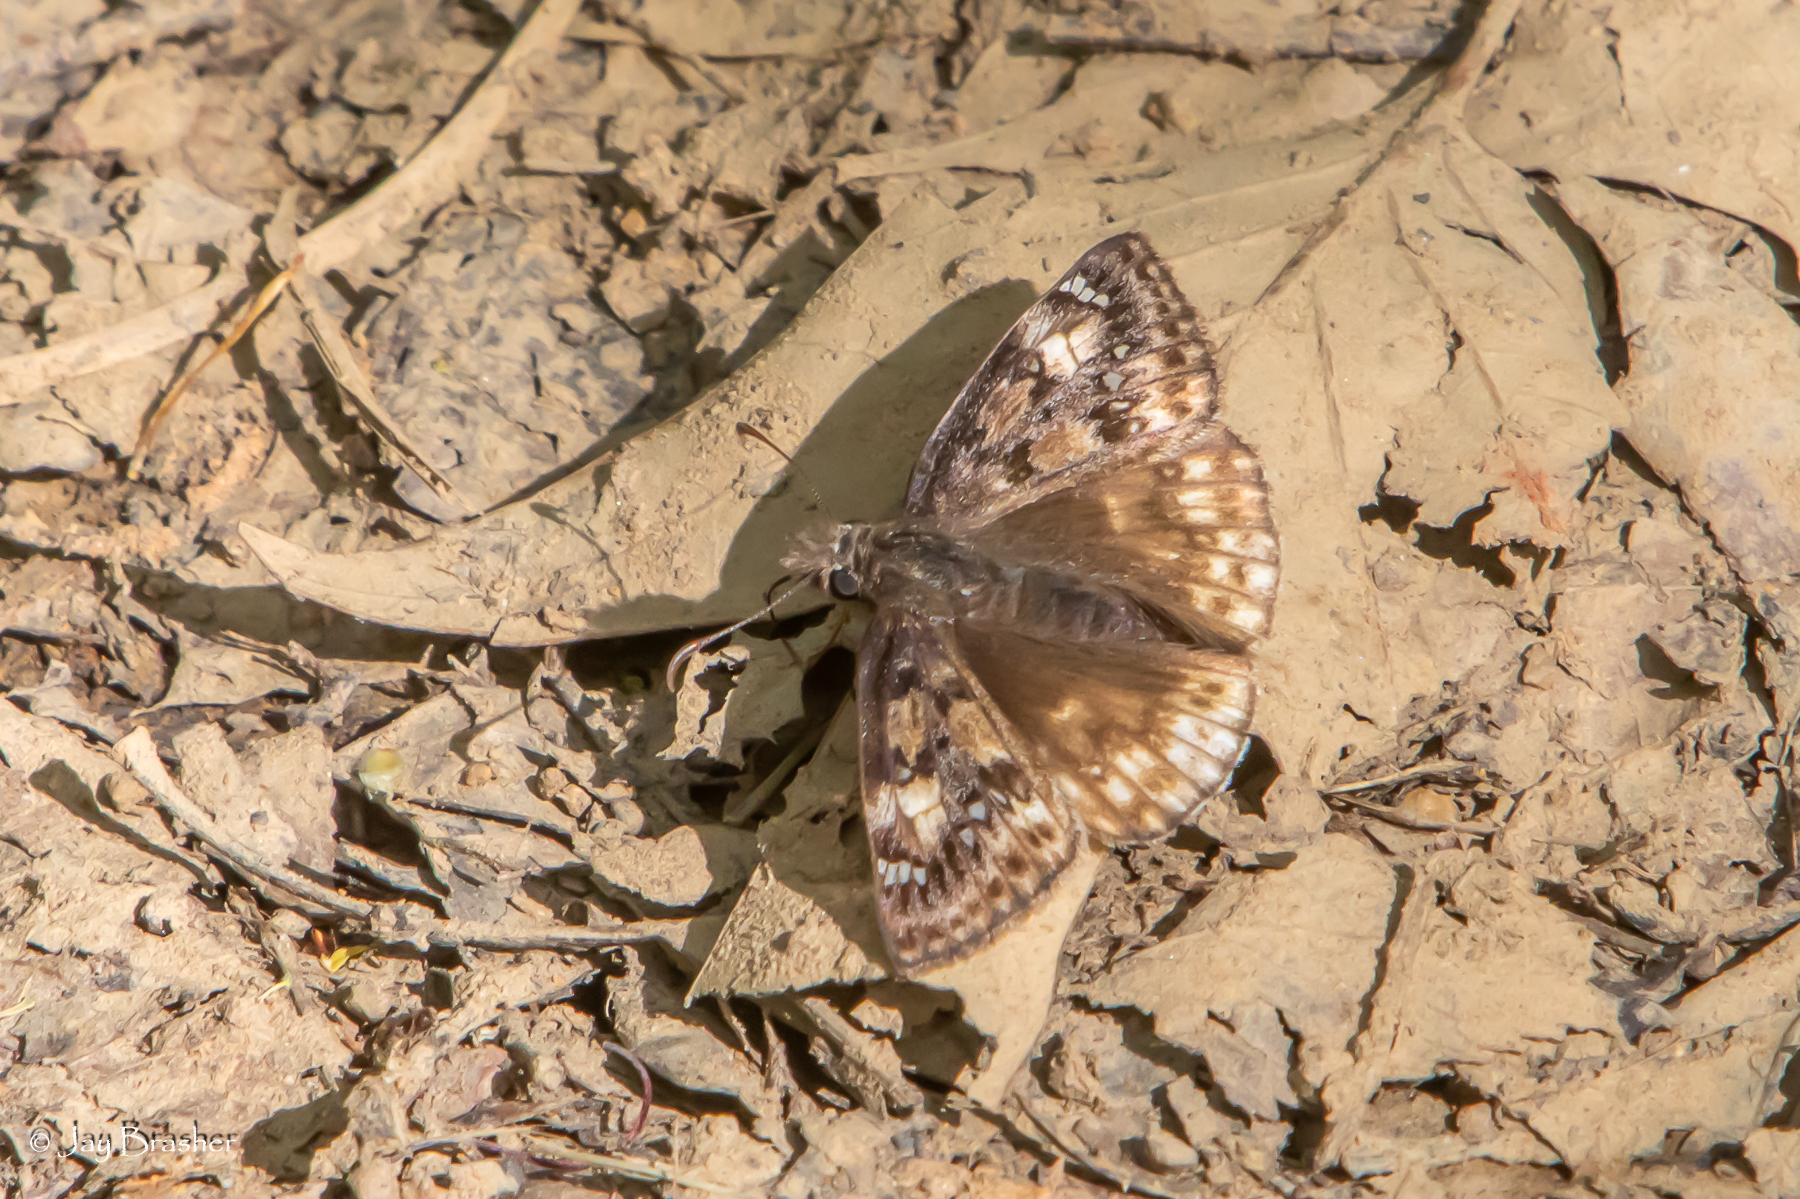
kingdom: Animalia
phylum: Arthropoda
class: Insecta
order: Lepidoptera
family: Hesperiidae
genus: Erynnis
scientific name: Erynnis juvenalis
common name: Juvenal's duskywing
